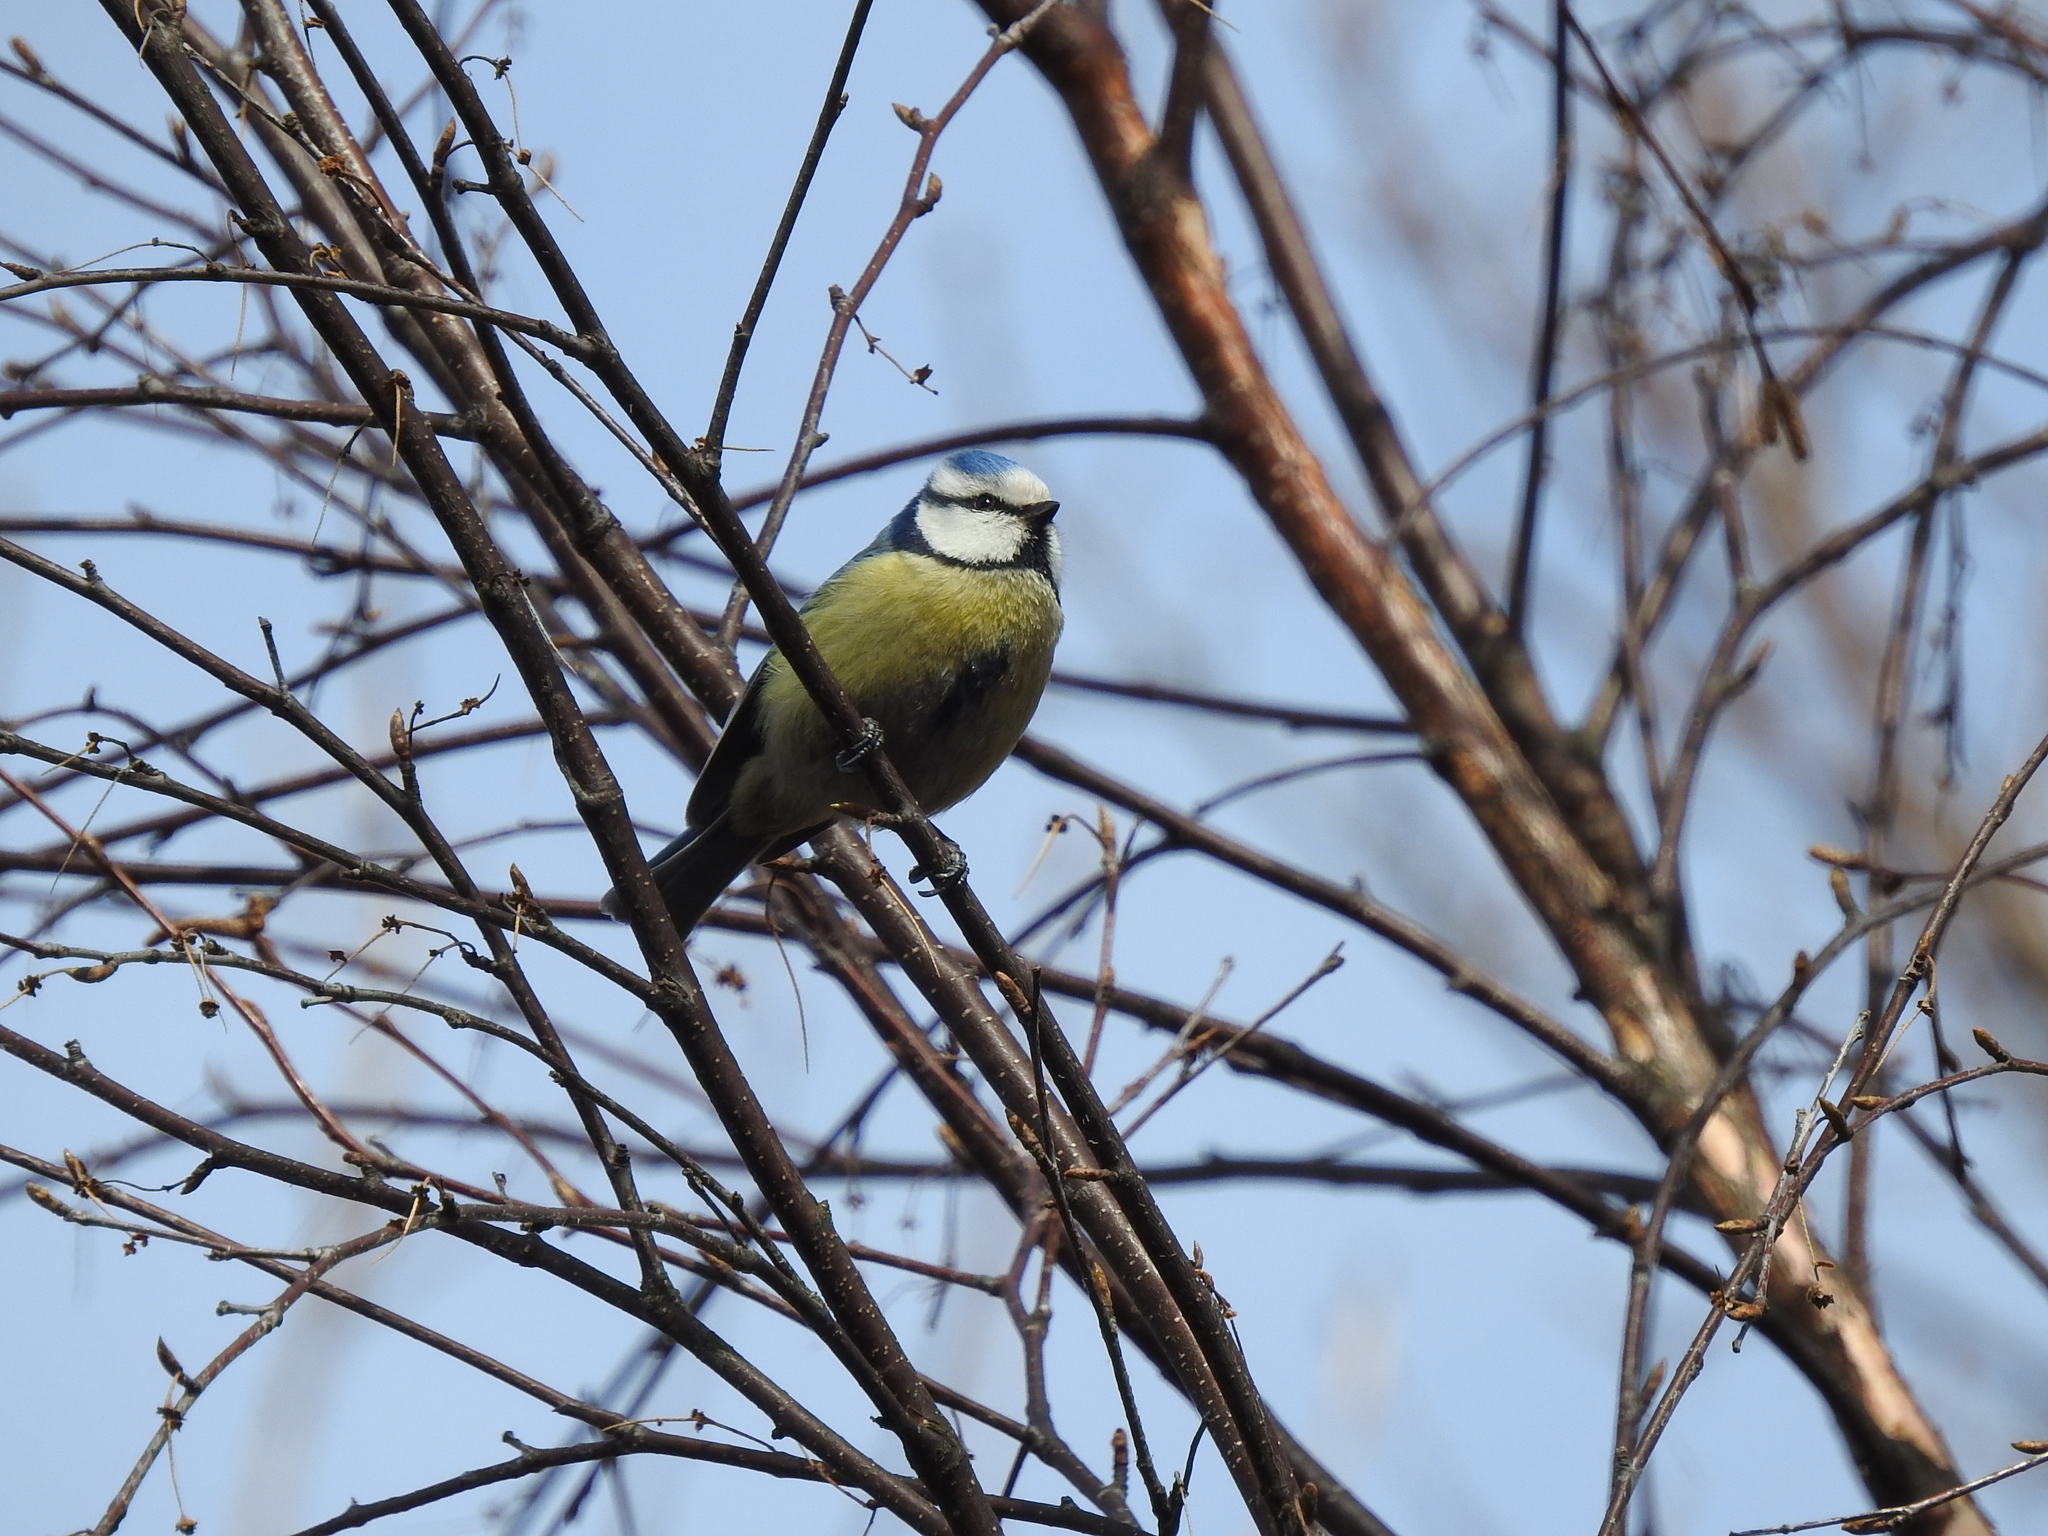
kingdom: Animalia
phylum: Chordata
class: Aves
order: Passeriformes
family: Paridae
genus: Cyanistes
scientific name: Cyanistes caeruleus
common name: Eurasian blue tit
